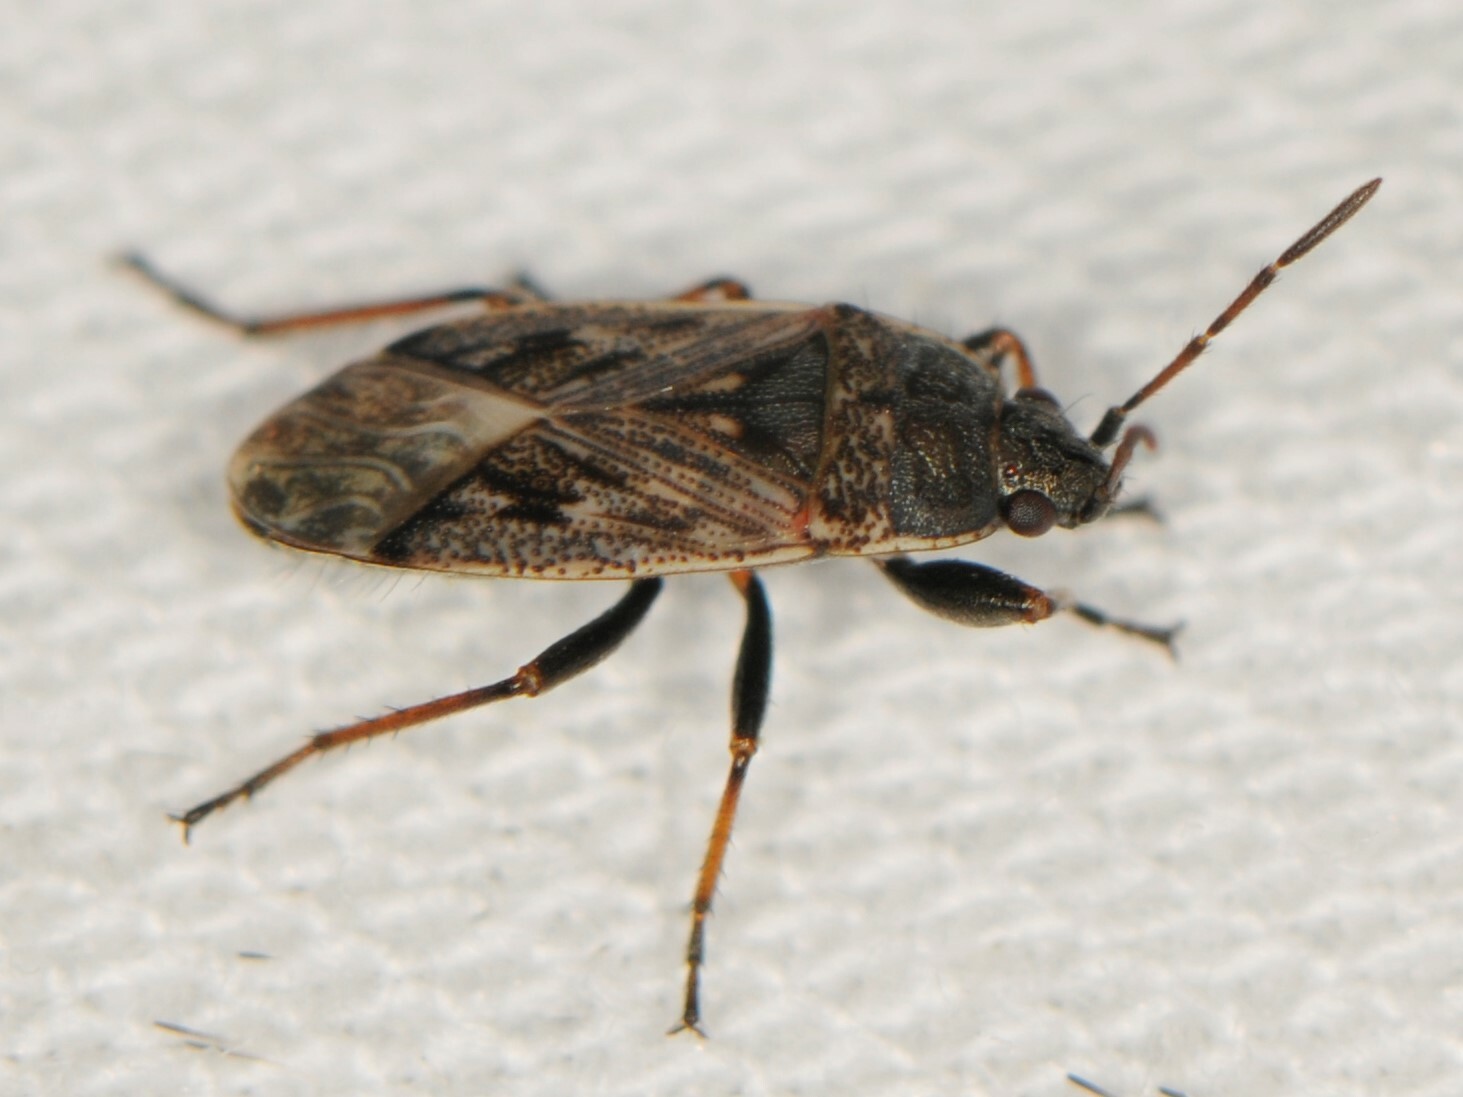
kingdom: Animalia
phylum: Arthropoda
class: Insecta
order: Hemiptera
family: Rhyparochromidae
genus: Sphragisticus
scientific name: Sphragisticus nebulosus
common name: Dirt-colored seed bug
